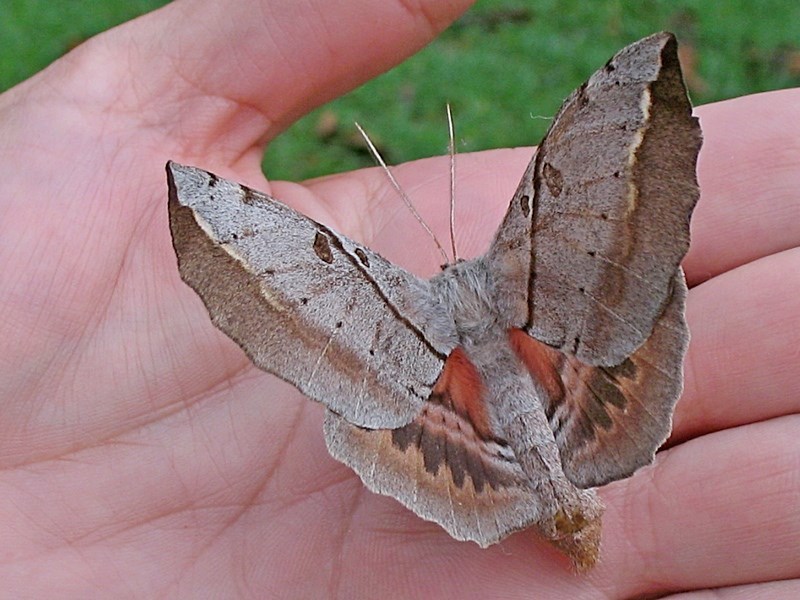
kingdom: Animalia
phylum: Arthropoda
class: Insecta
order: Lepidoptera
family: Anthelidae
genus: Chelepteryx
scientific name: Chelepteryx chalepteryx
